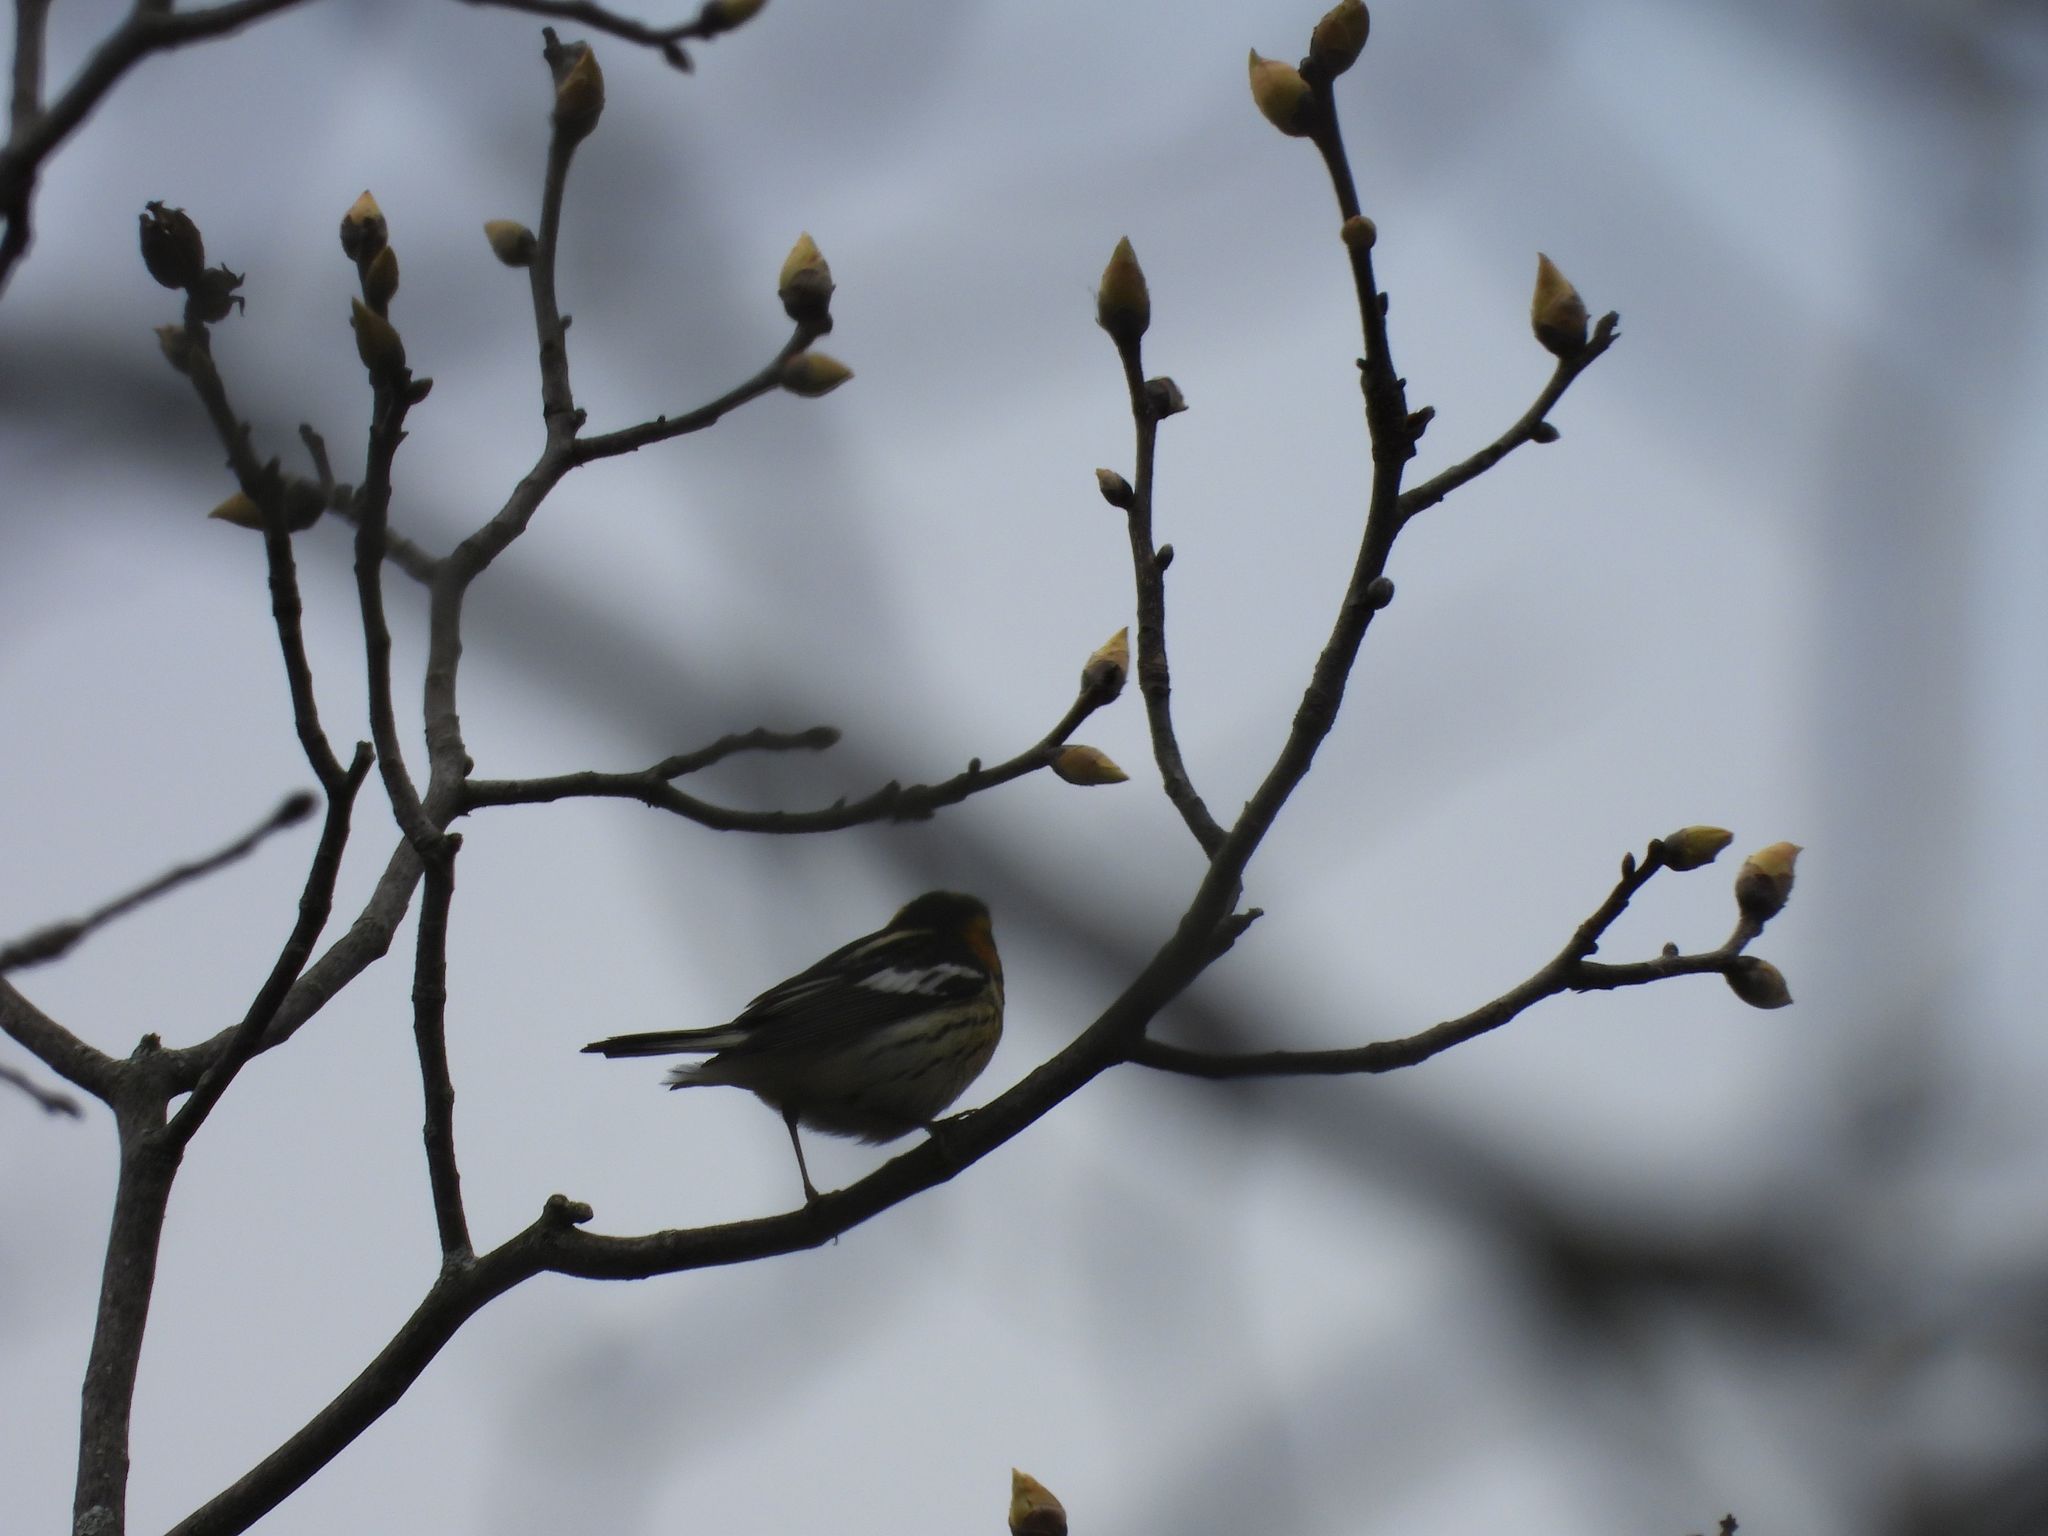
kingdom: Animalia
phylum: Chordata
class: Aves
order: Passeriformes
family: Parulidae
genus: Setophaga
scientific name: Setophaga fusca
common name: Blackburnian warbler
